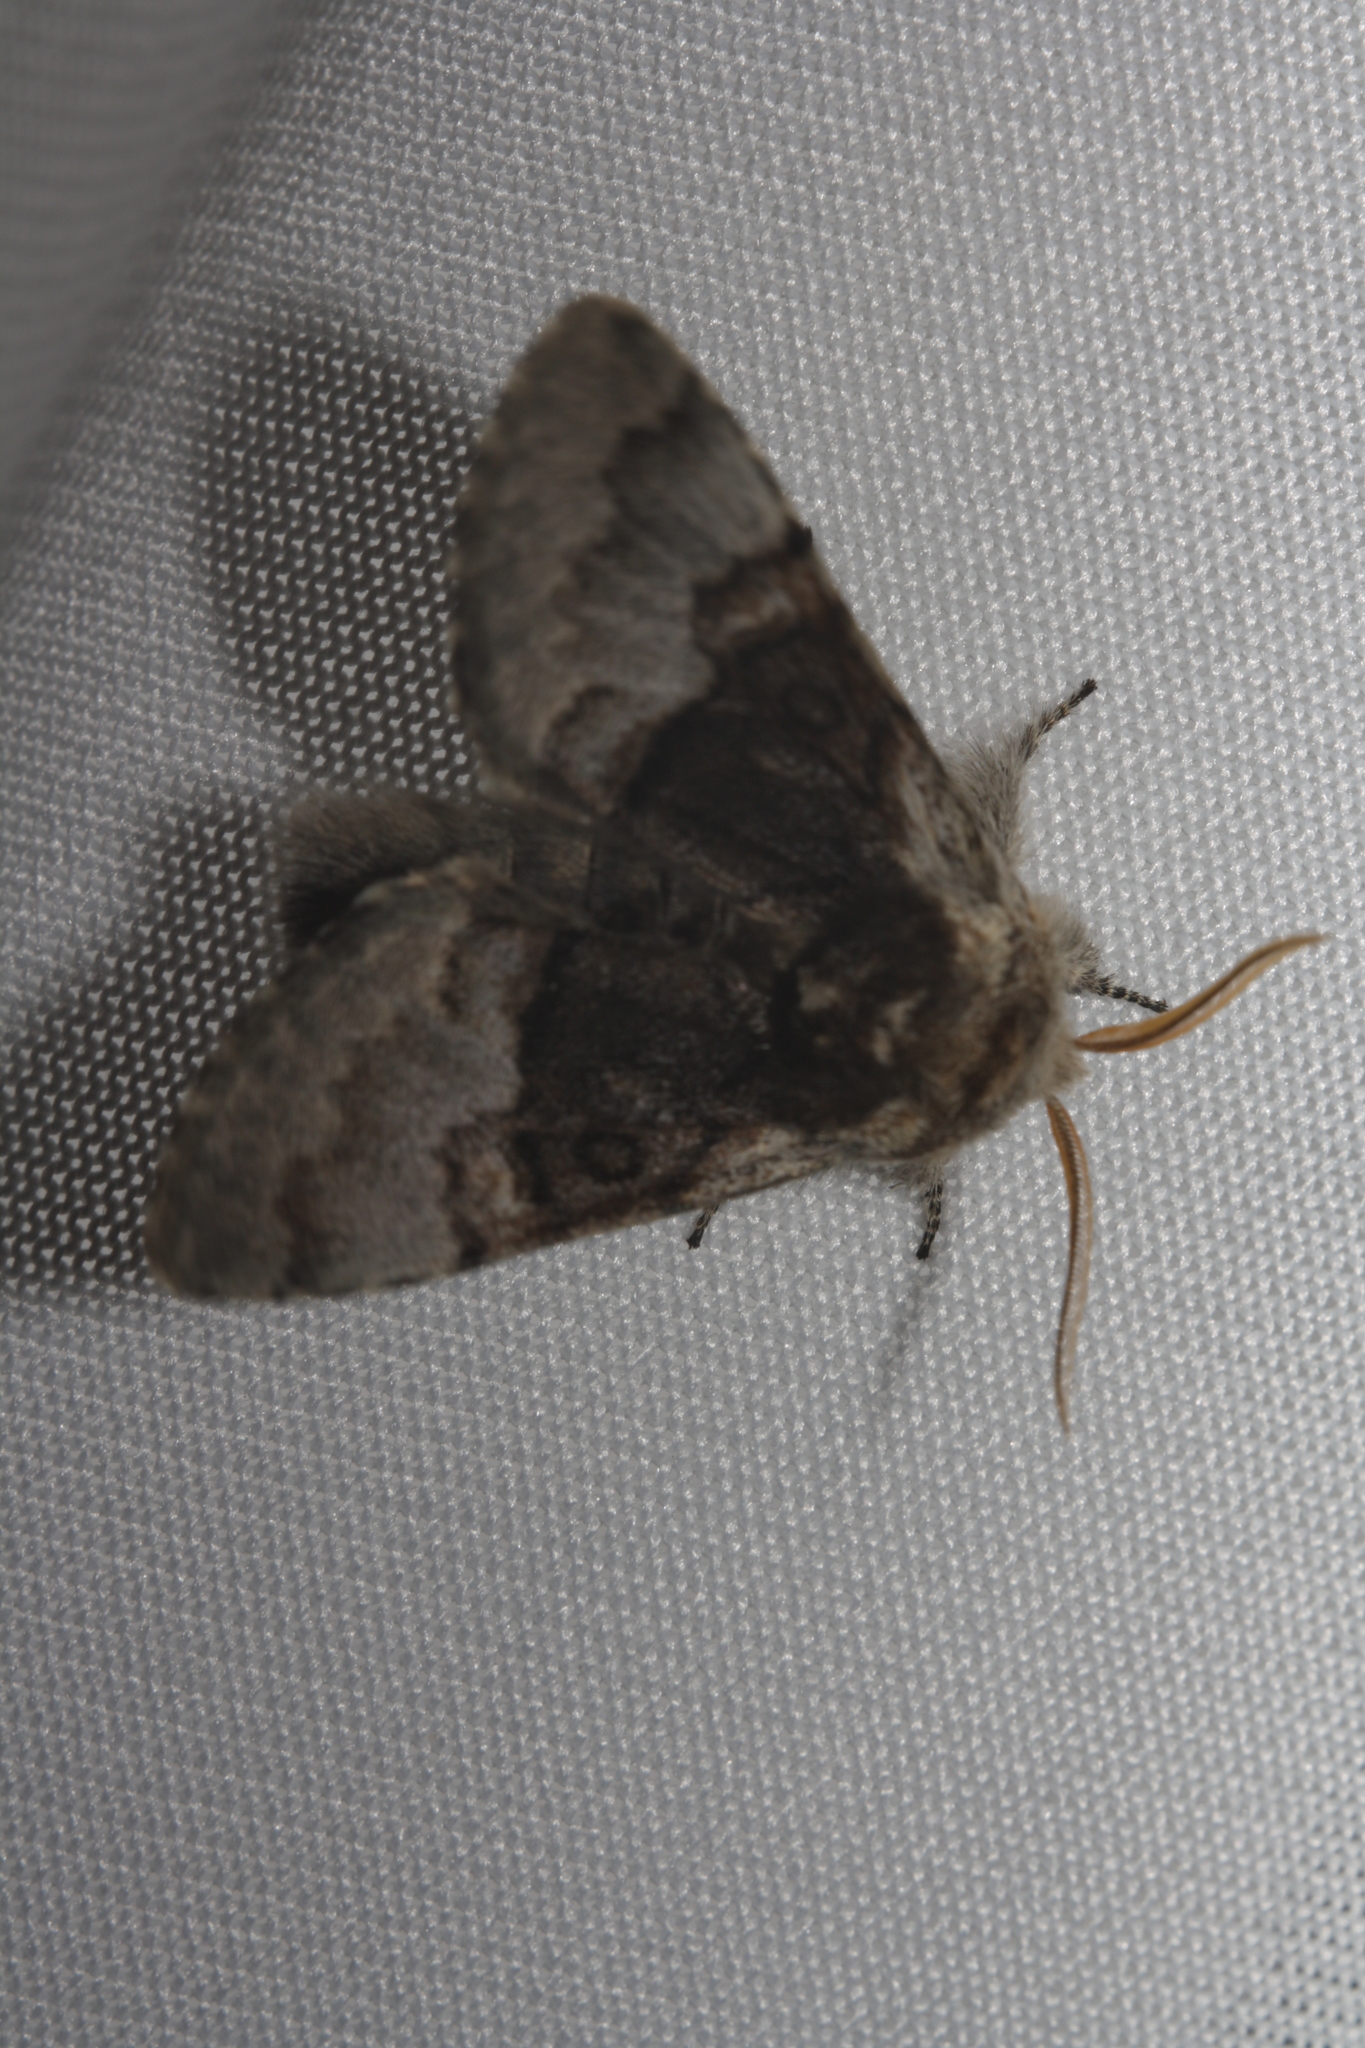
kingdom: Animalia
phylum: Arthropoda
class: Insecta
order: Lepidoptera
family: Noctuidae
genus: Colocasia
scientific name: Colocasia coryli
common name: Nut-tree tussock
